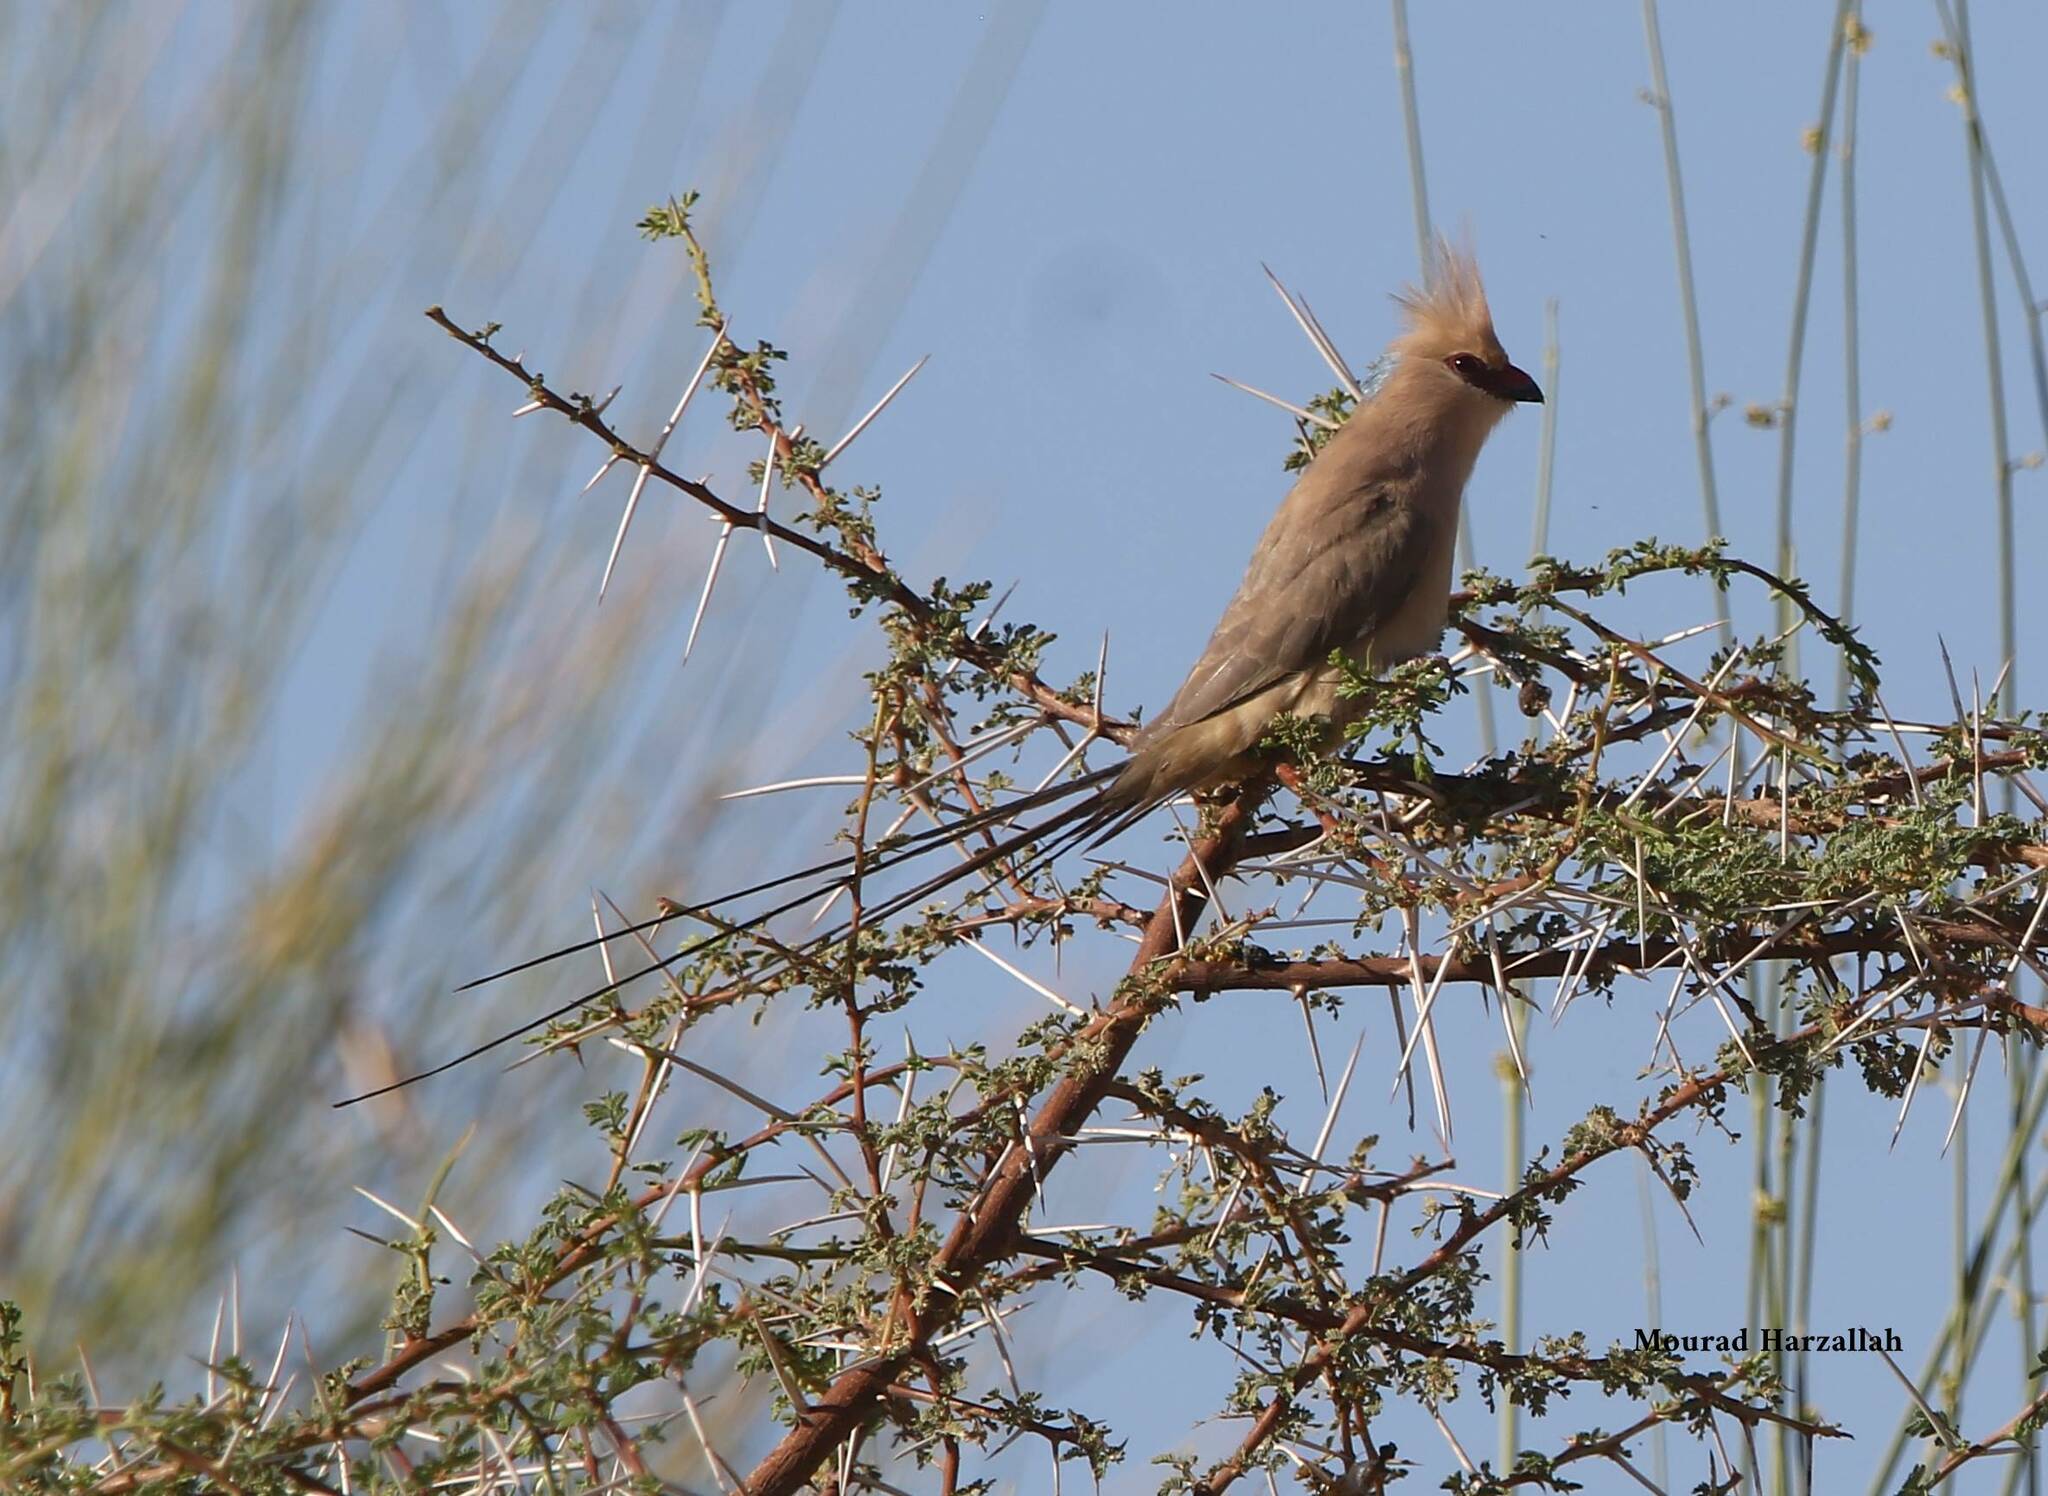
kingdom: Animalia
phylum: Chordata
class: Aves
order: Coliiformes
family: Coliidae
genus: Urocolius
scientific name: Urocolius macrourus
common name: Blue-naped mousebird
